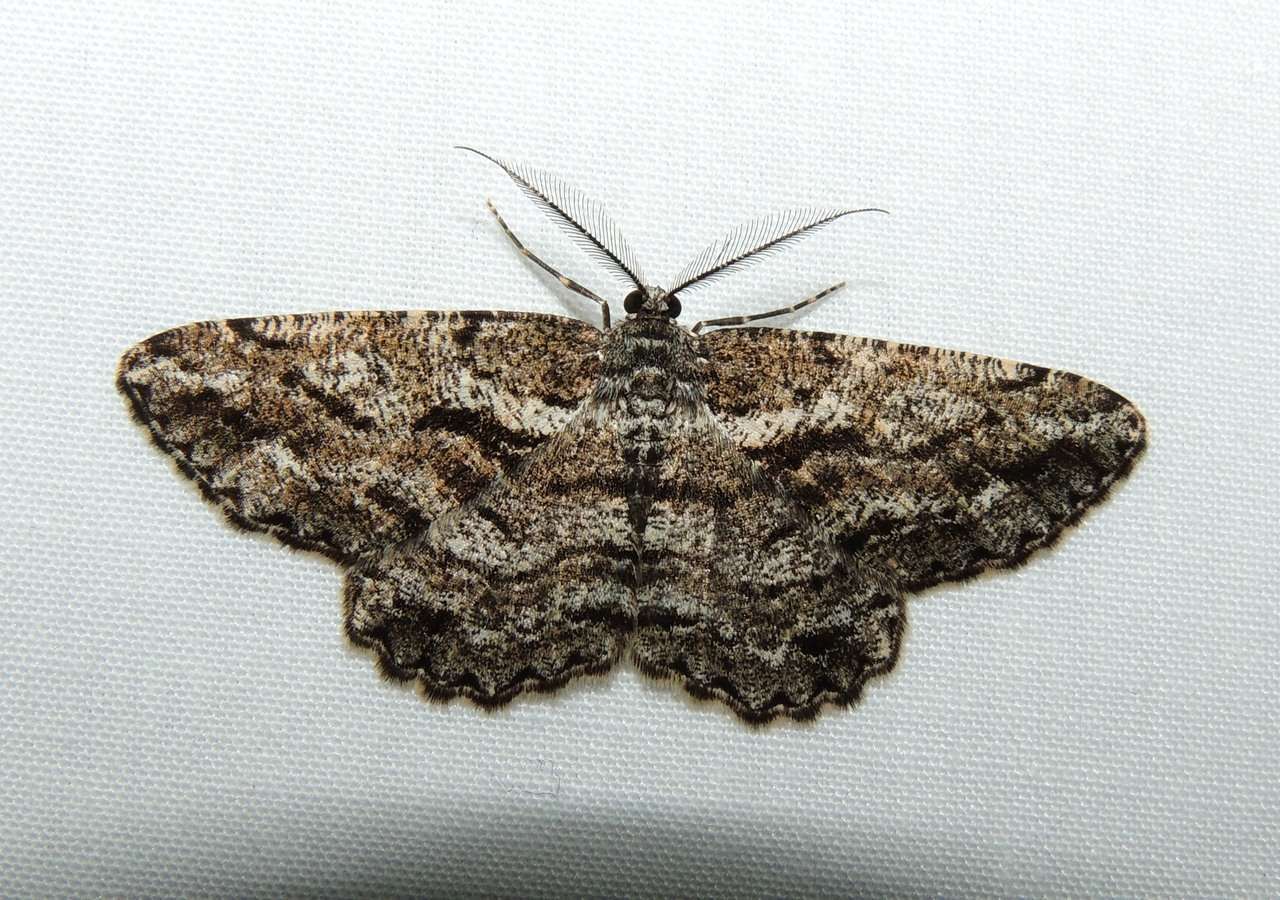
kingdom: Animalia
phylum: Arthropoda
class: Insecta
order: Lepidoptera
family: Geometridae
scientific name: Geometridae
